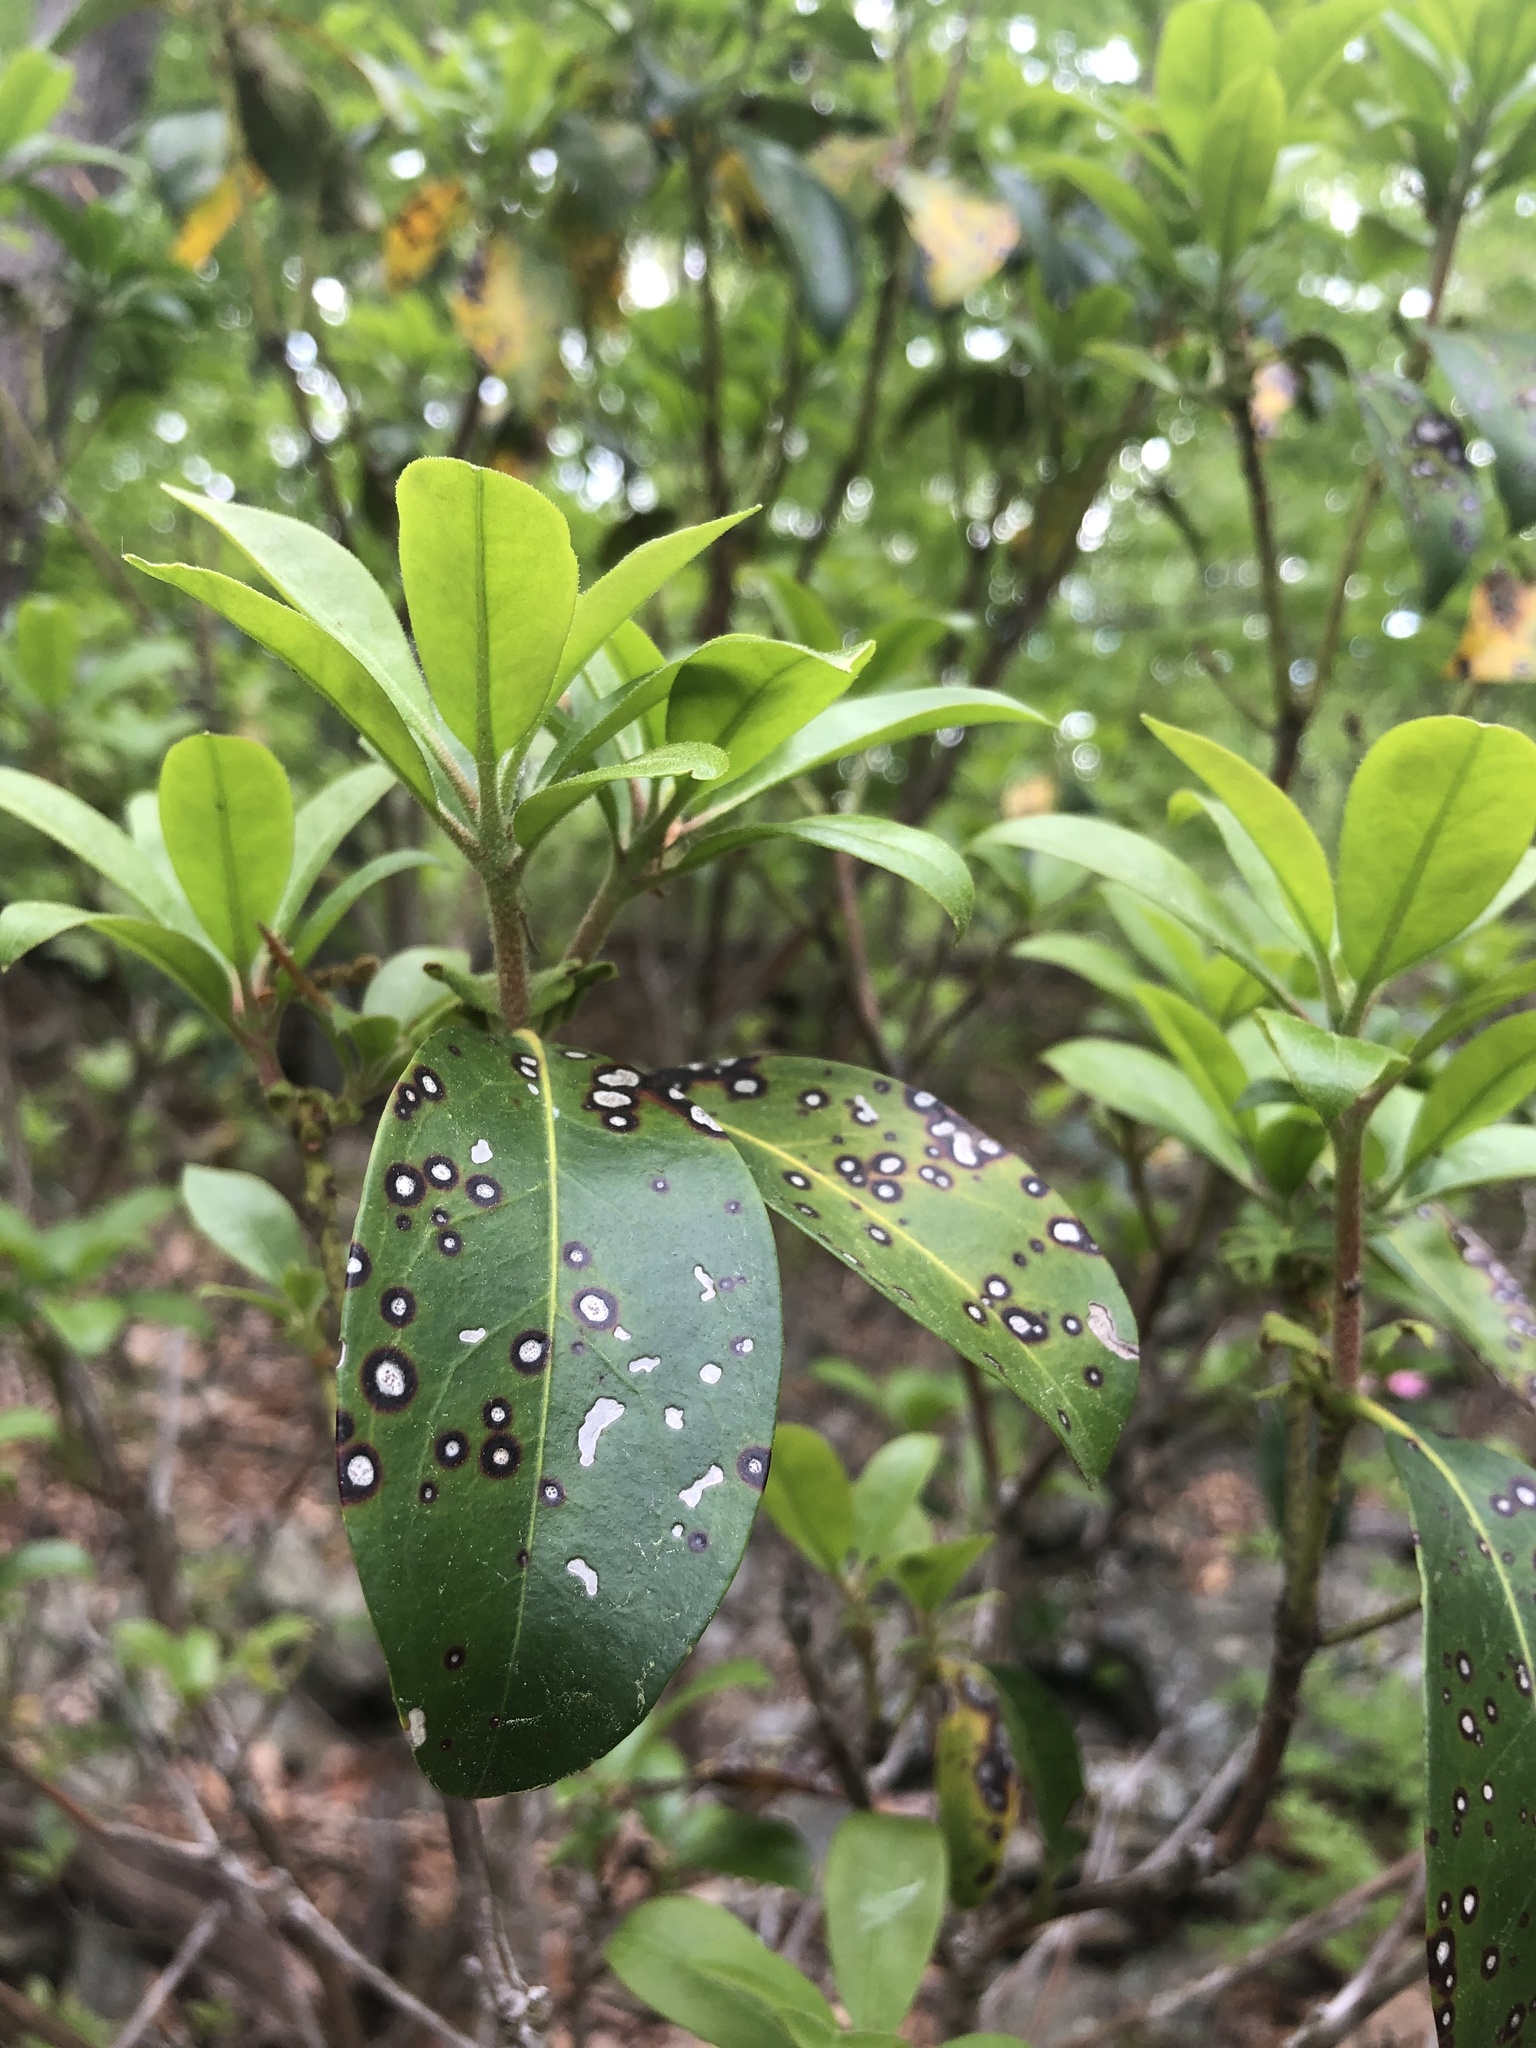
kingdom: Plantae
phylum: Tracheophyta
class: Magnoliopsida
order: Ericales
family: Ericaceae
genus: Kalmia
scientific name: Kalmia latifolia
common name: Mountain-laurel
